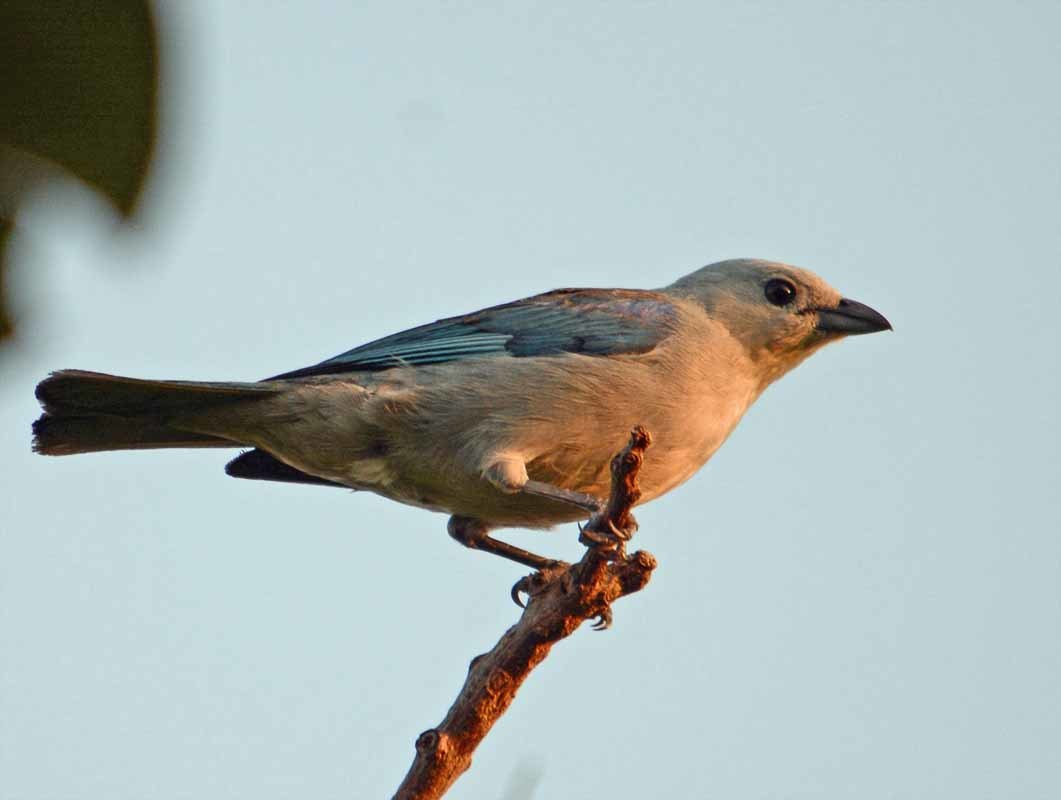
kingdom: Animalia
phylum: Chordata
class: Aves
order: Passeriformes
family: Thraupidae
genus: Thraupis
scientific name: Thraupis episcopus
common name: Blue-grey tanager
